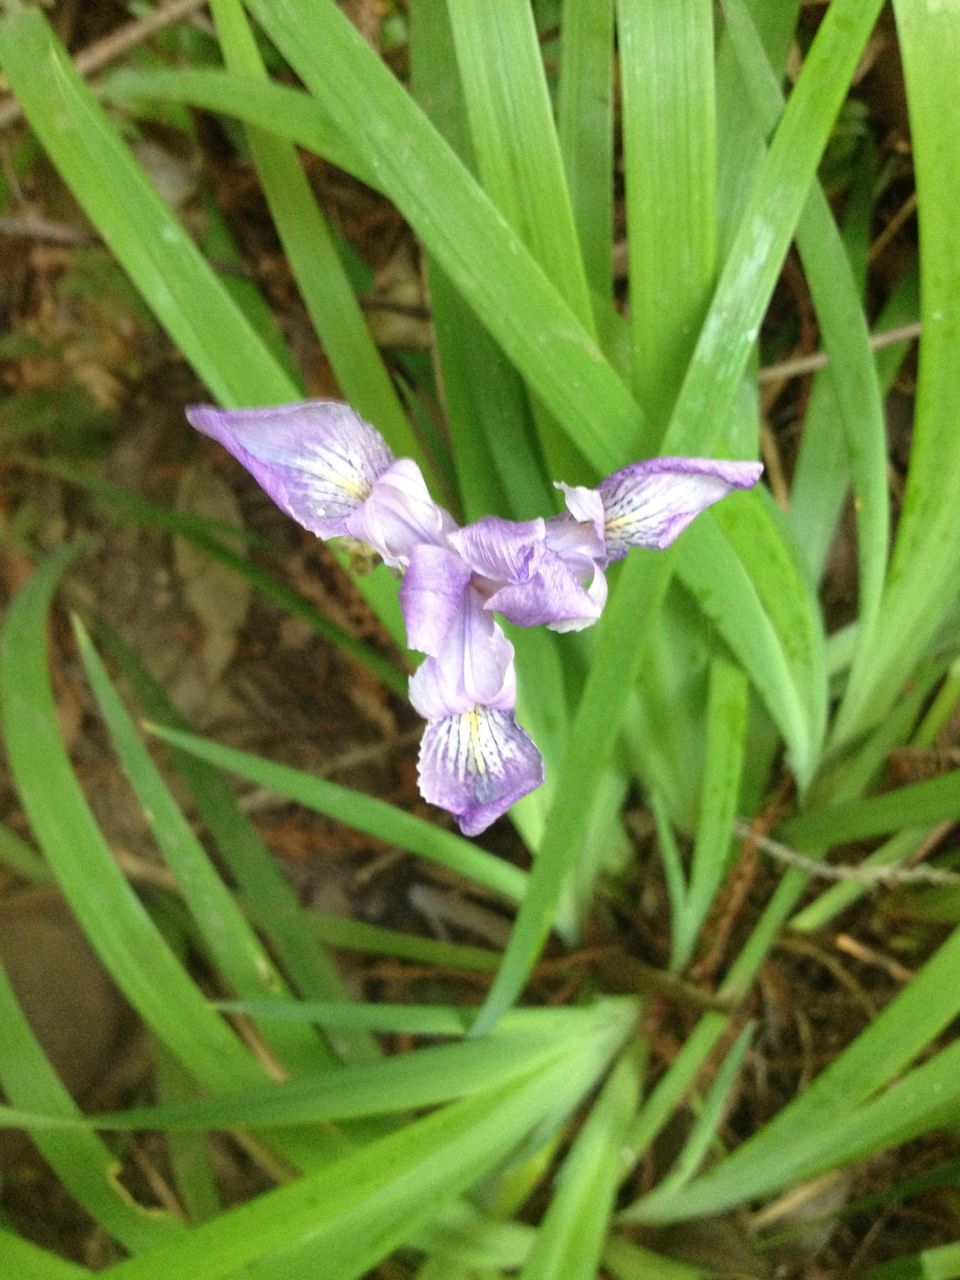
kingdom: Plantae
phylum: Tracheophyta
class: Liliopsida
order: Asparagales
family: Iridaceae
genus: Iris
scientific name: Iris douglasiana
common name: Marin iris
